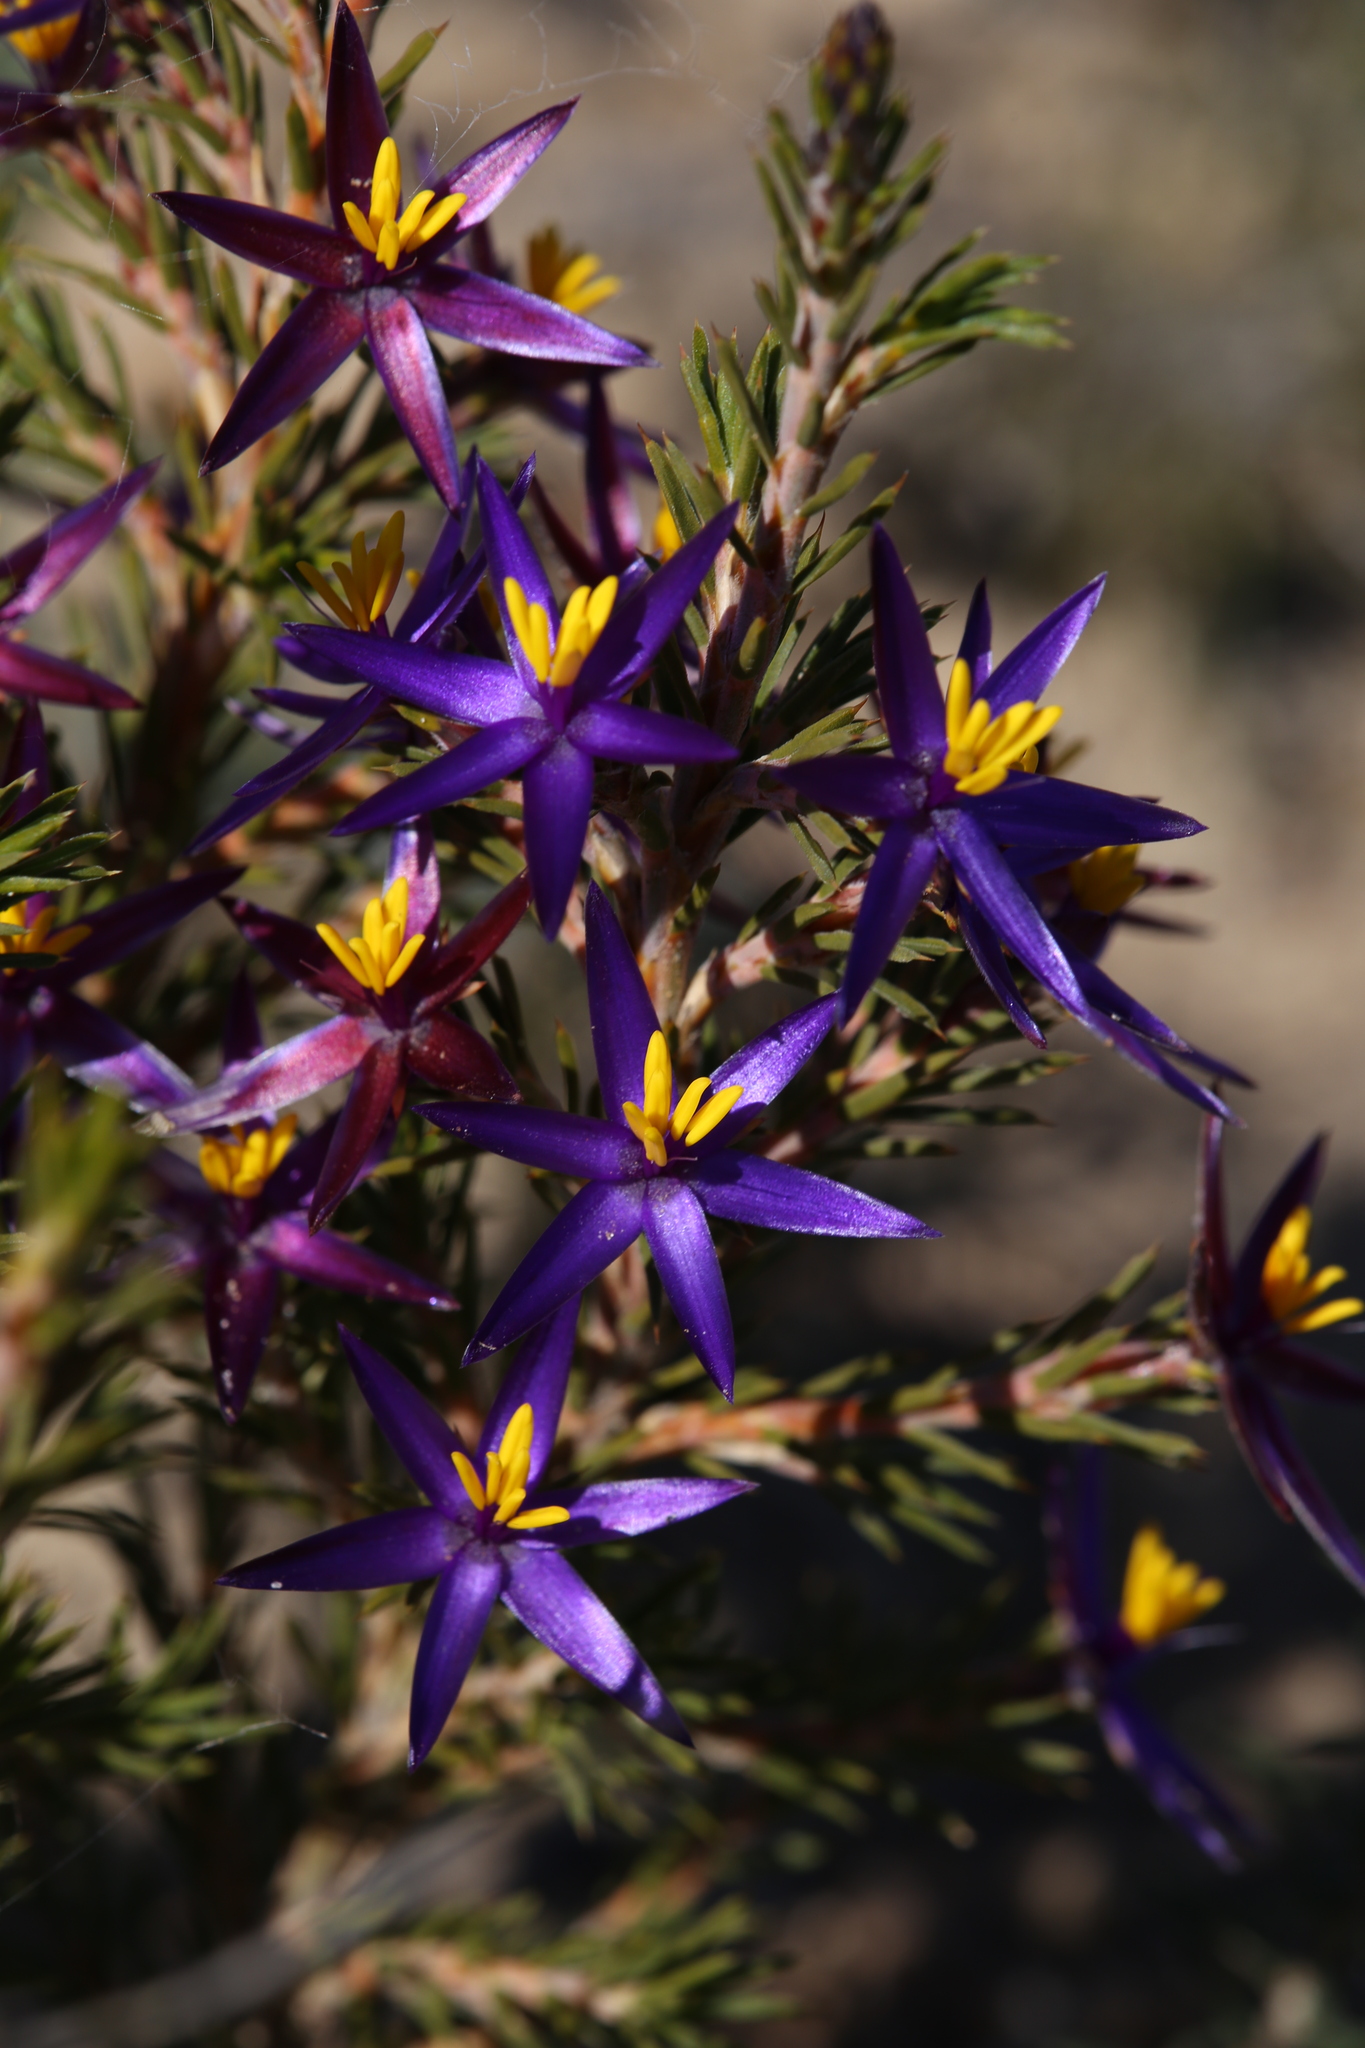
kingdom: Plantae
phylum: Tracheophyta
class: Liliopsida
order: Arecales
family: Dasypogonaceae
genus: Calectasia
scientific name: Calectasia valida
